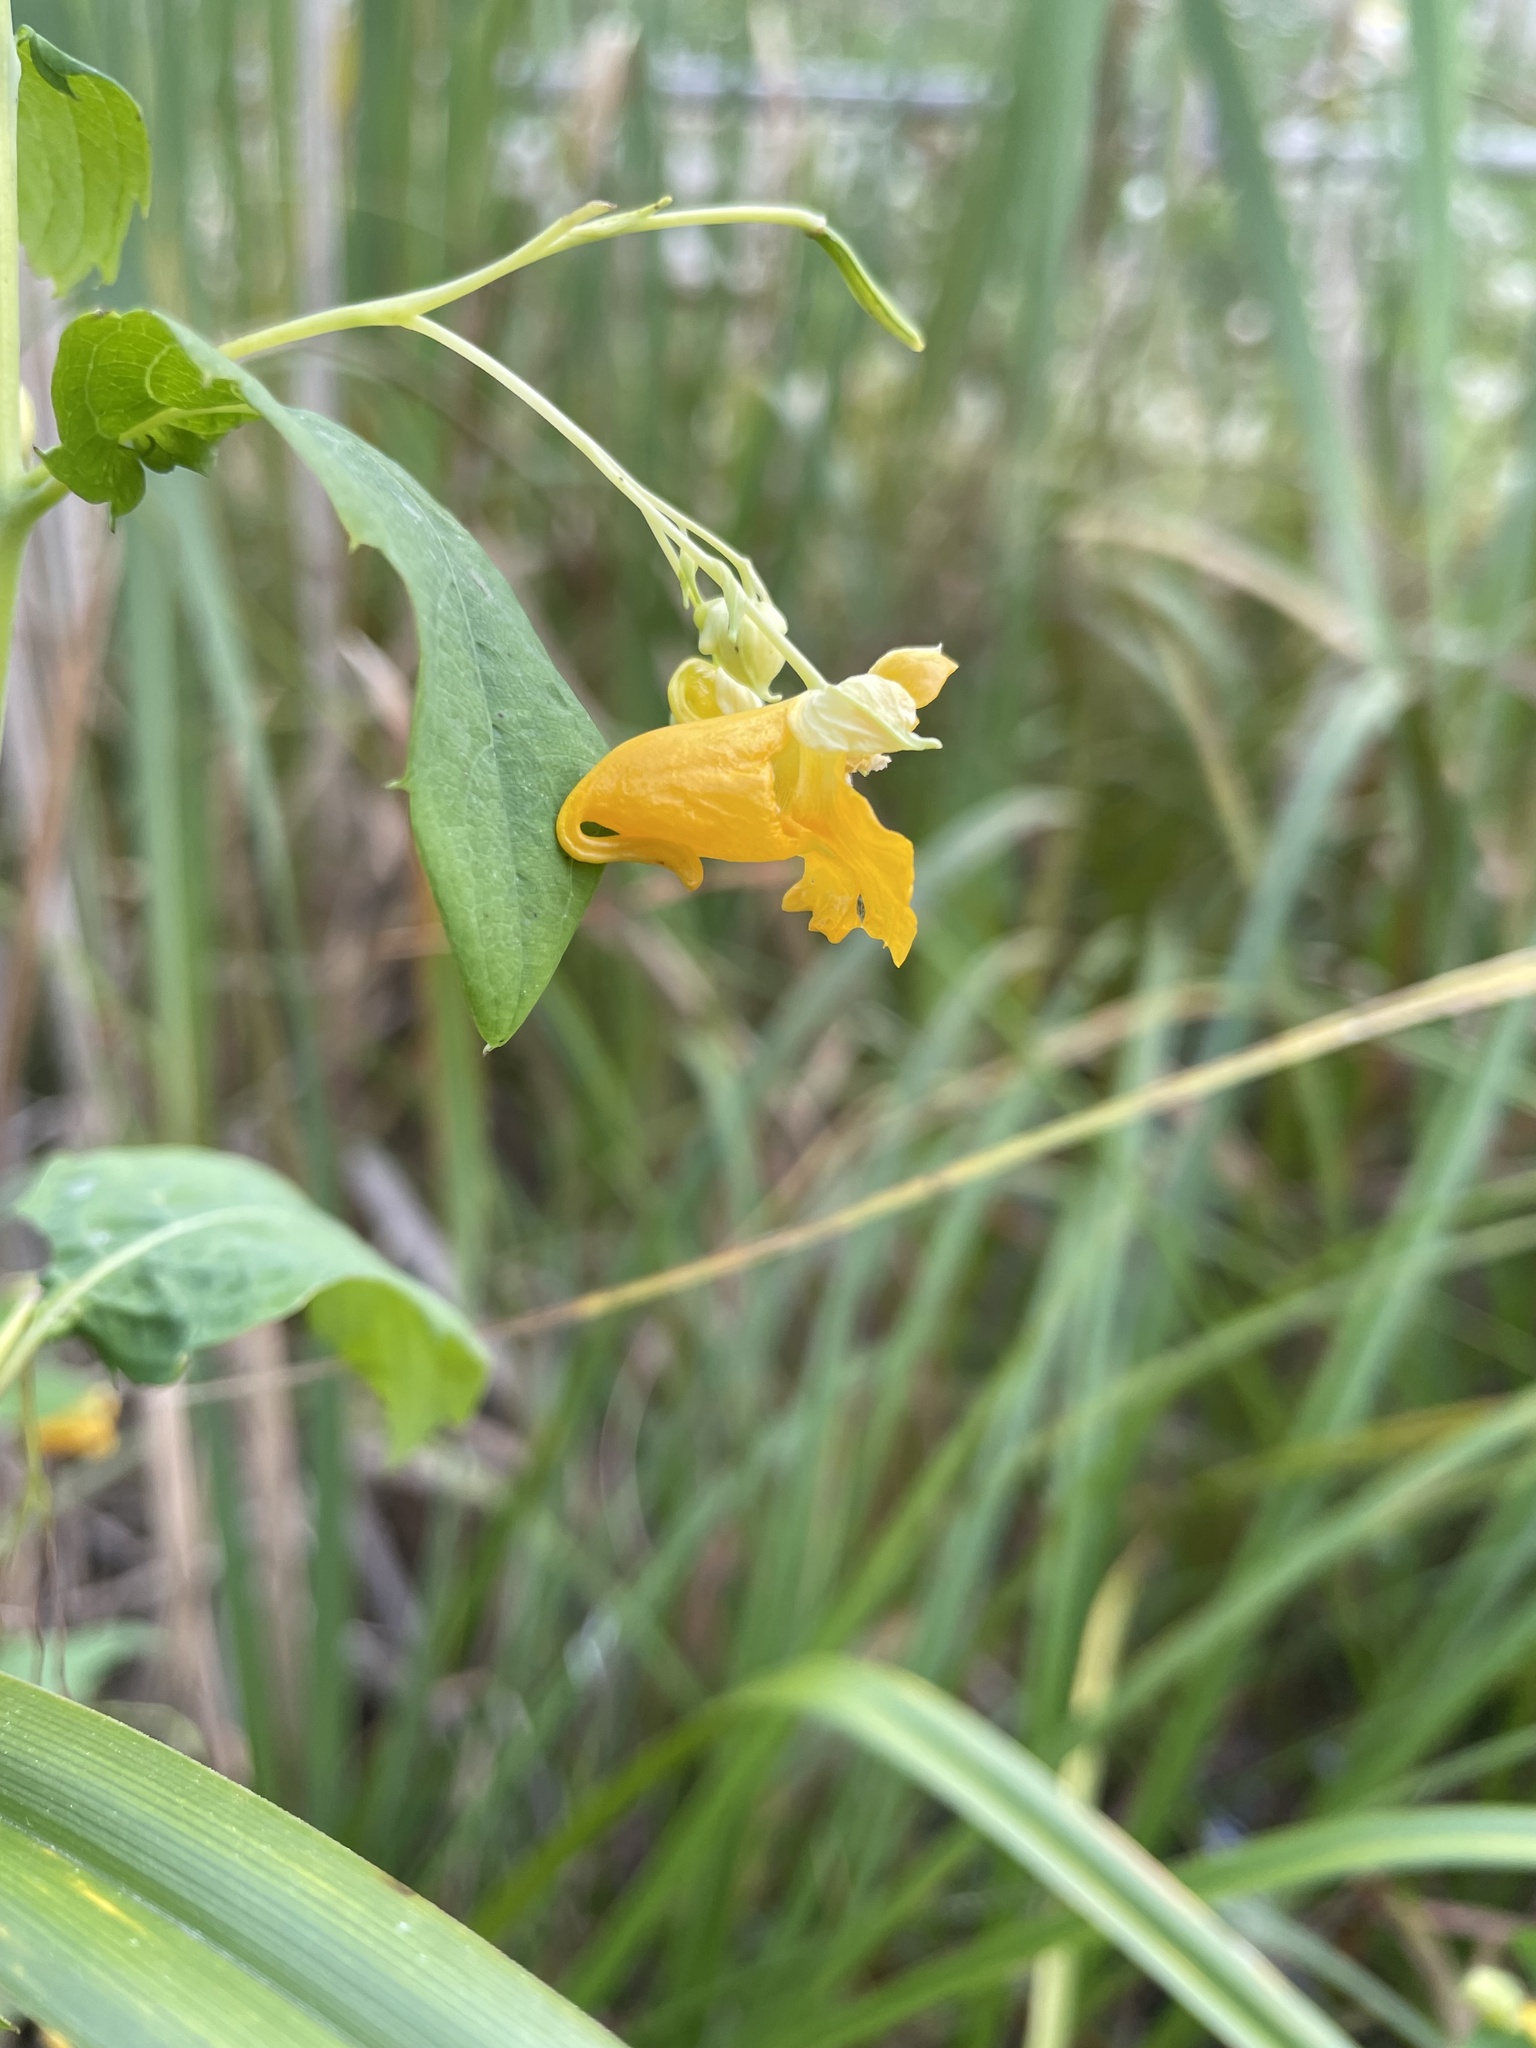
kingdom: Plantae
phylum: Tracheophyta
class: Magnoliopsida
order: Ericales
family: Balsaminaceae
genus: Impatiens
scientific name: Impatiens capensis
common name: Orange balsam
